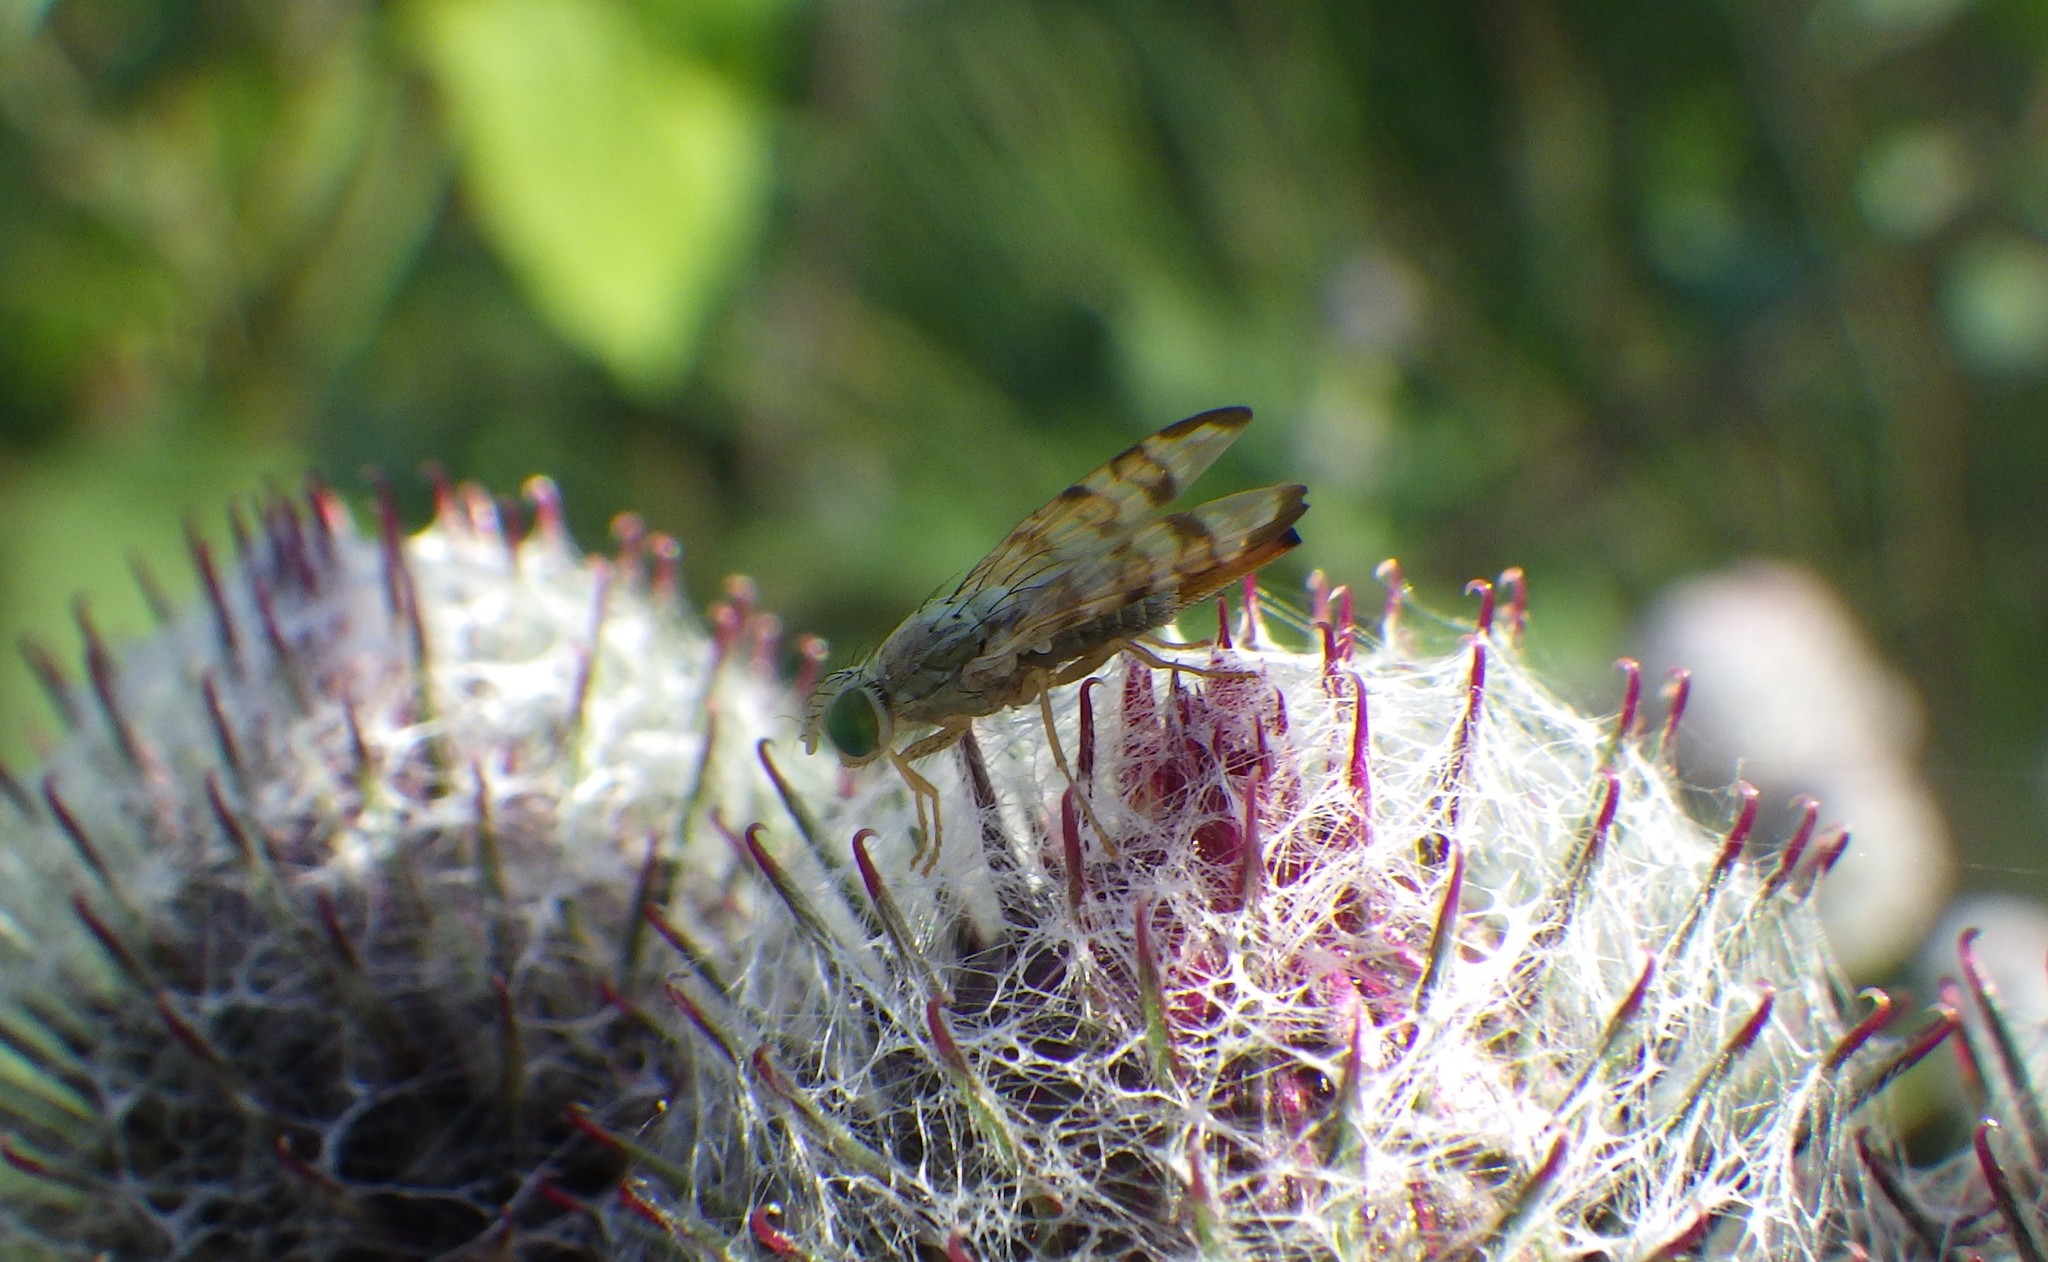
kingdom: Animalia
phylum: Arthropoda
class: Insecta
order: Diptera
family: Tephritidae
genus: Terellia
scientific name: Terellia tussilaginis
